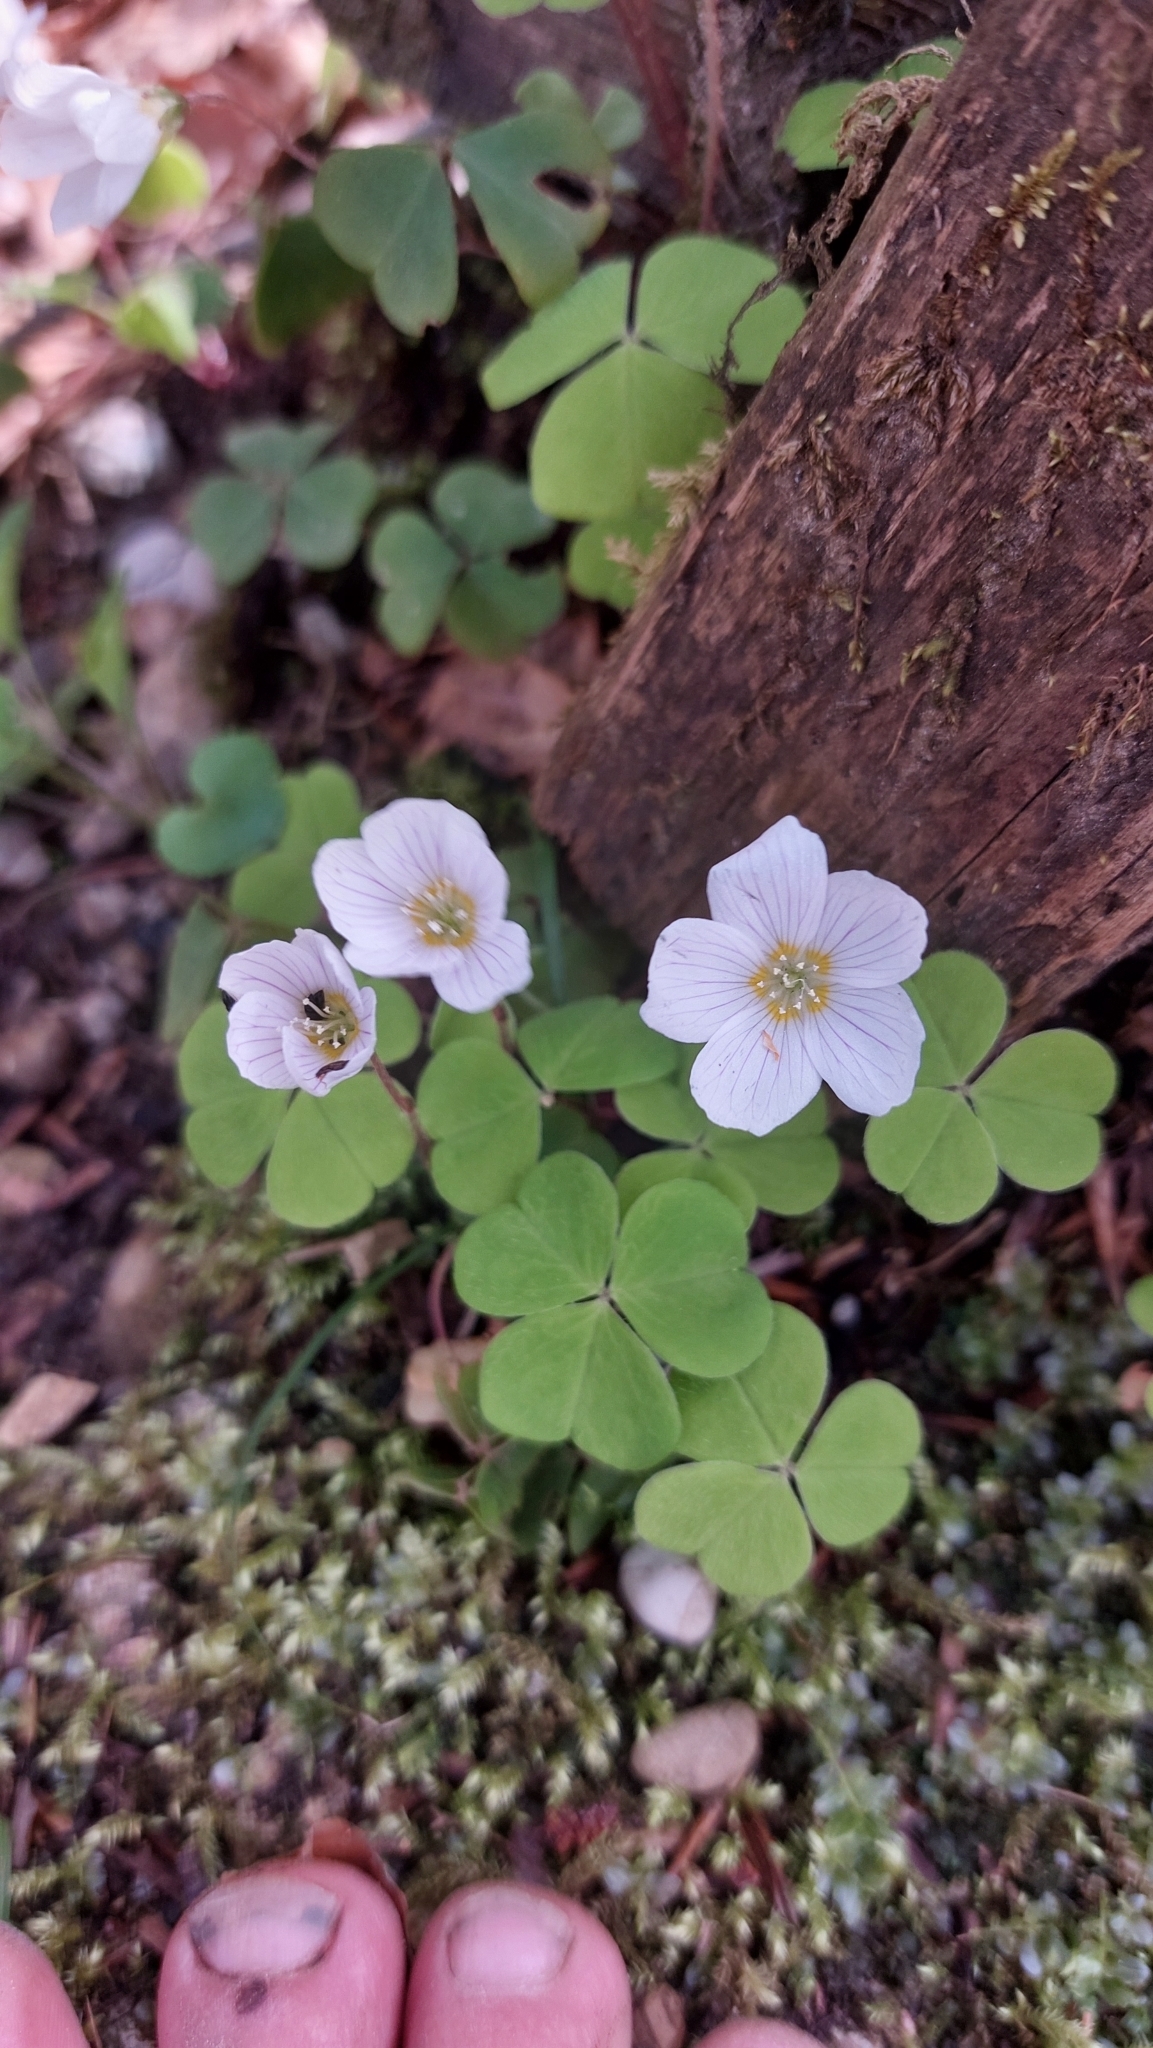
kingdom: Plantae
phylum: Tracheophyta
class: Magnoliopsida
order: Oxalidales
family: Oxalidaceae
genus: Oxalis
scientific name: Oxalis acetosella
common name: Wood-sorrel
